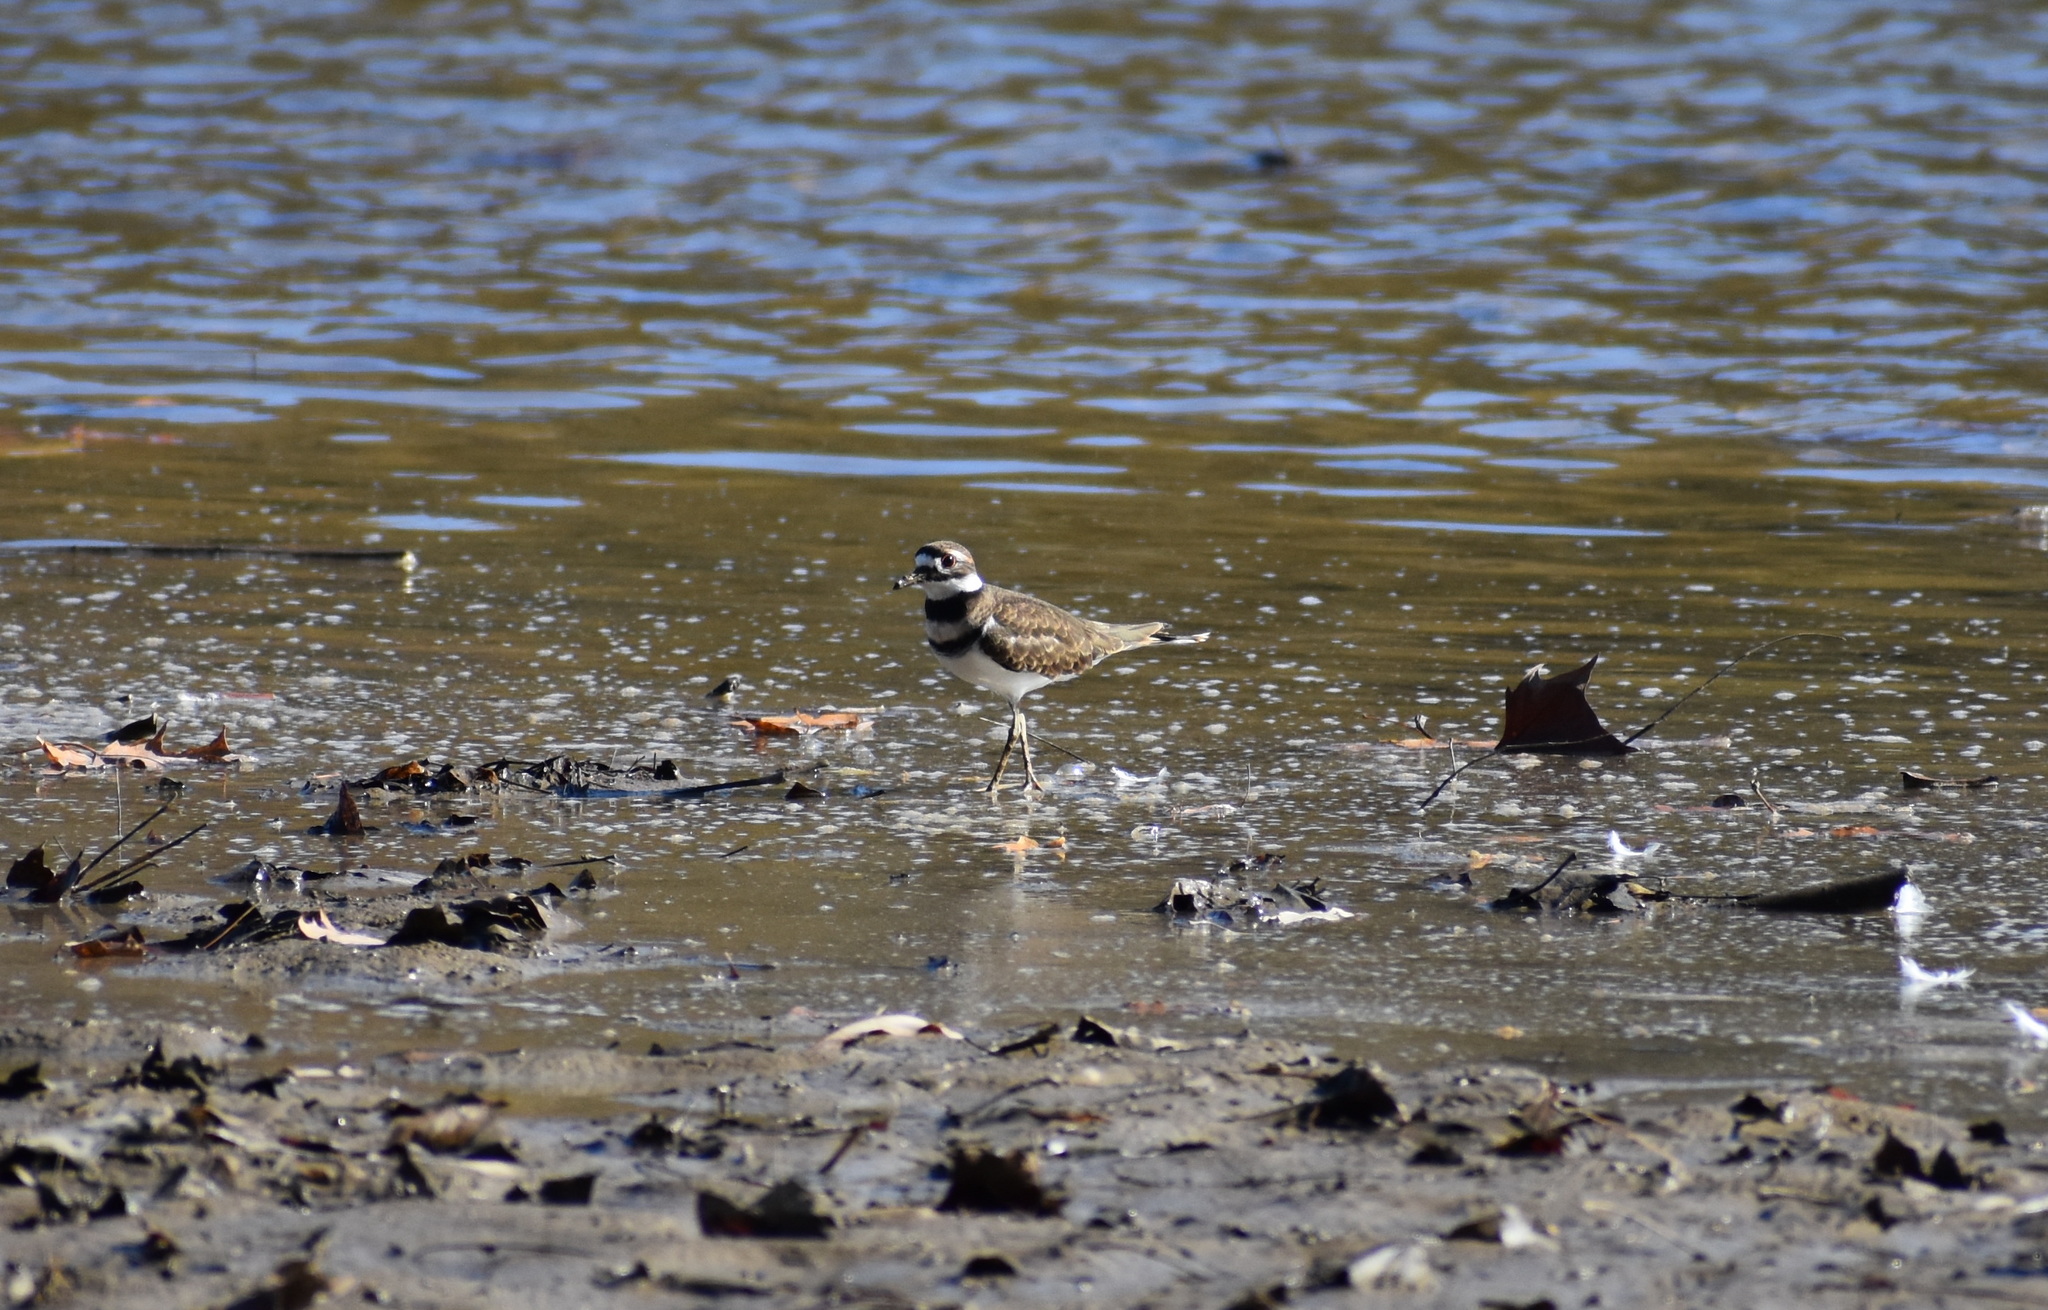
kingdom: Animalia
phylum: Chordata
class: Aves
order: Charadriiformes
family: Charadriidae
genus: Charadrius
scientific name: Charadrius vociferus
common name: Killdeer
